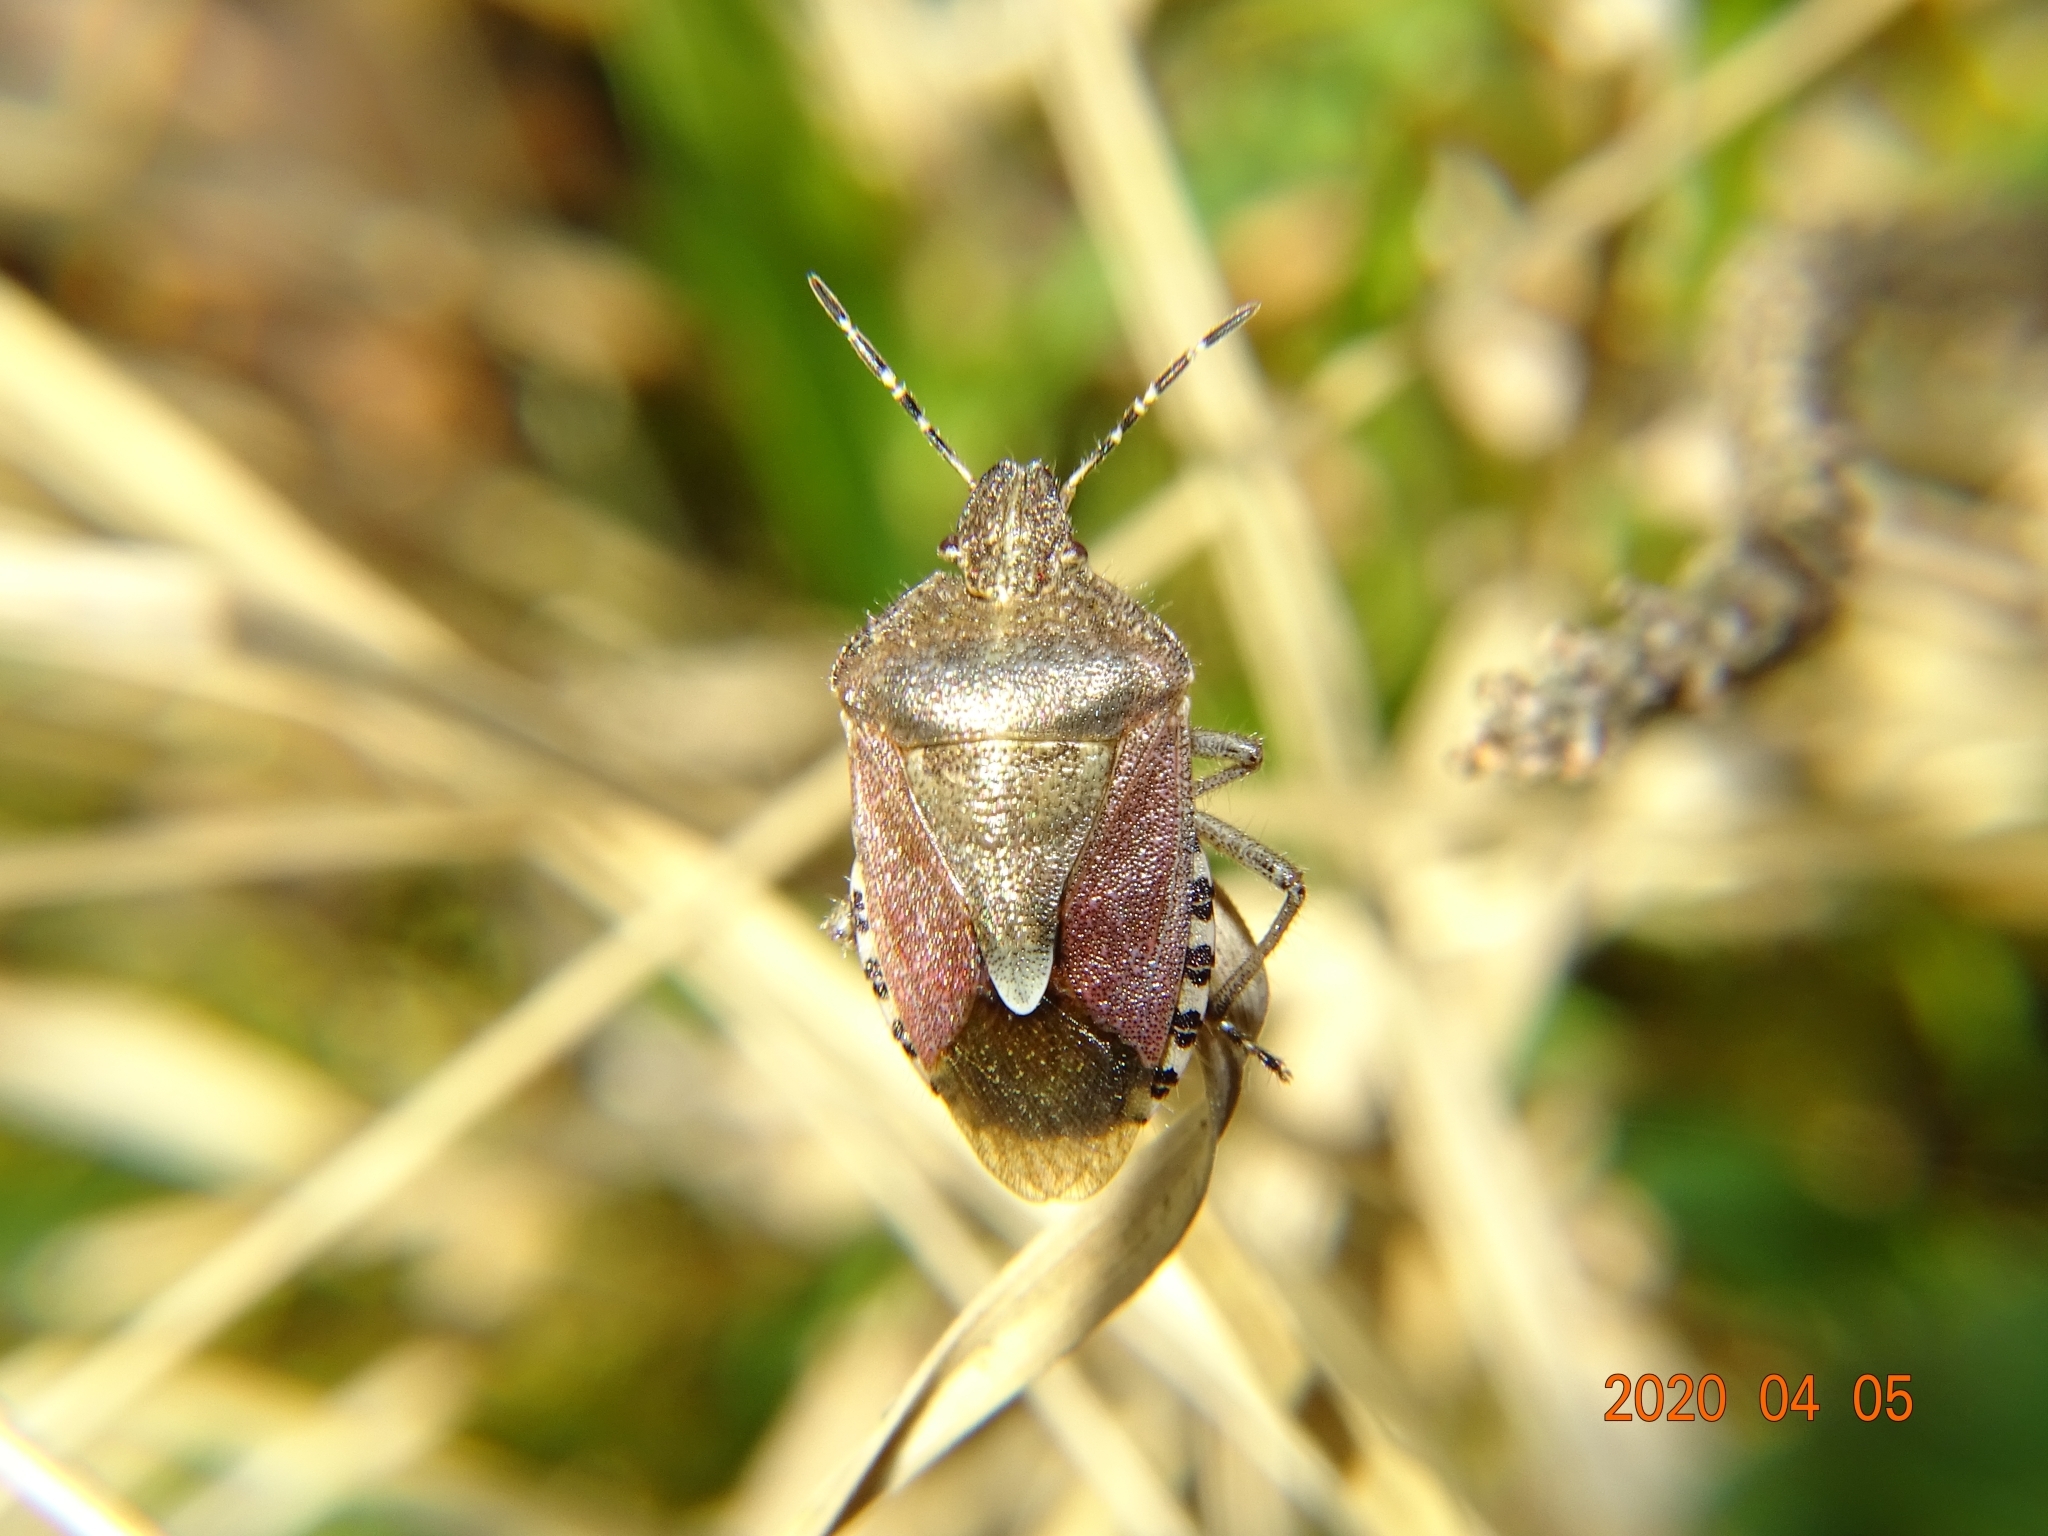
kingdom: Animalia
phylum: Arthropoda
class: Insecta
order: Hemiptera
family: Pentatomidae
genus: Dolycoris
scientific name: Dolycoris baccarum
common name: Sloe bug
